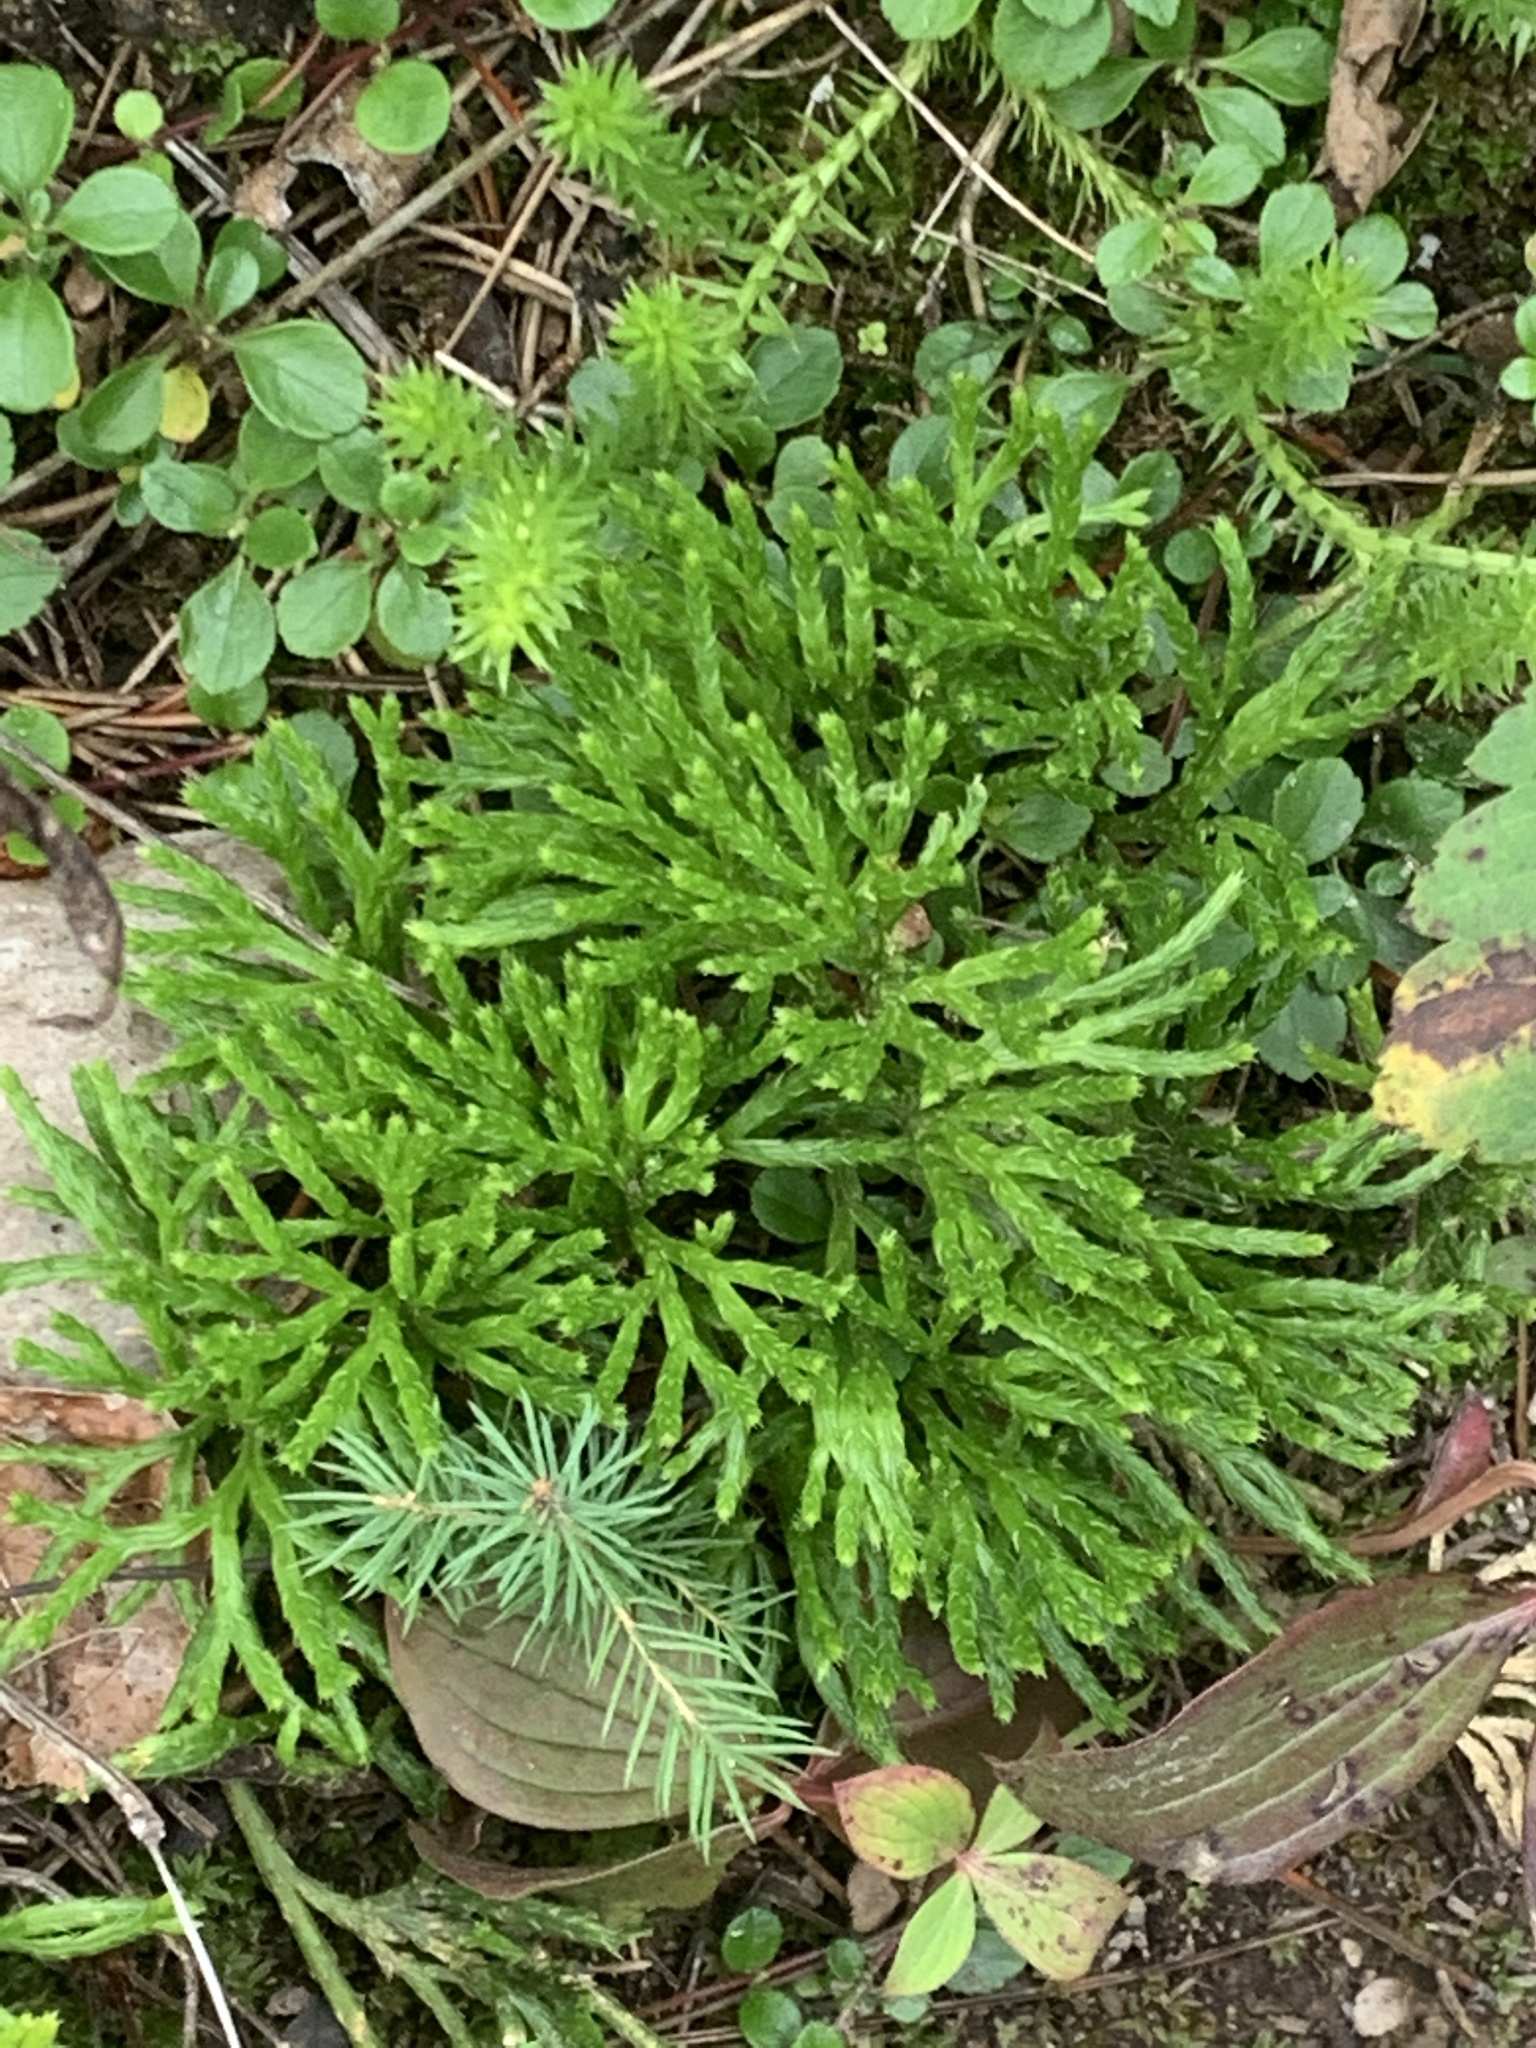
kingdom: Plantae
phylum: Tracheophyta
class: Lycopodiopsida
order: Lycopodiales
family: Lycopodiaceae
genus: Diphasiastrum
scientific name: Diphasiastrum complanatum
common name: Northern running-pine
